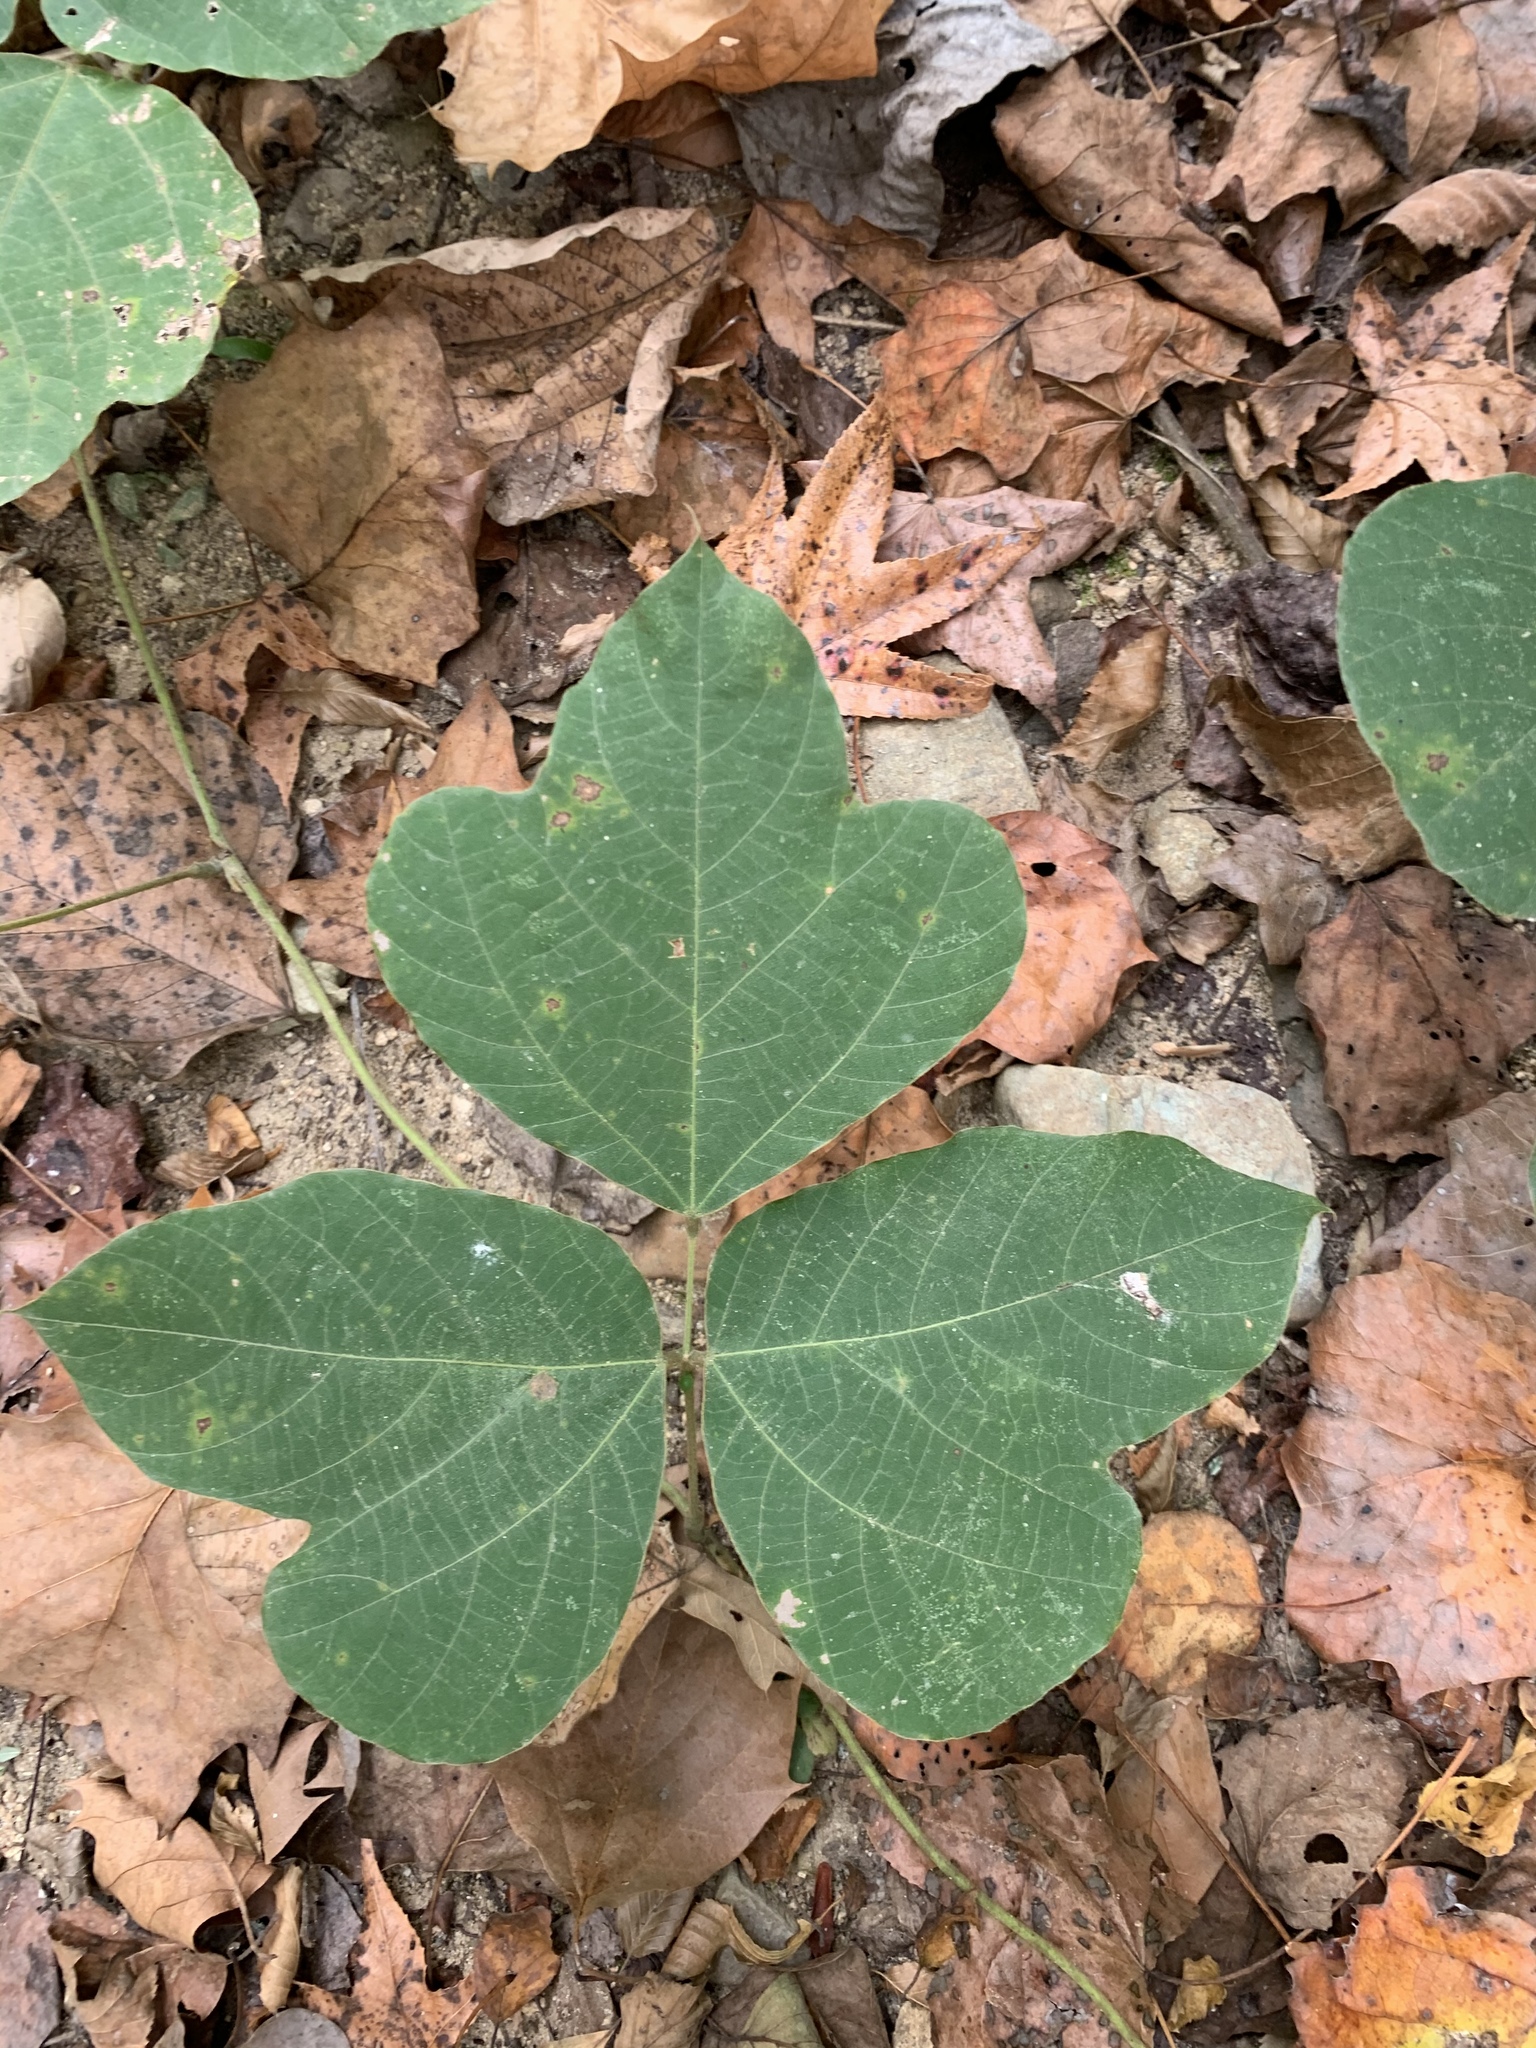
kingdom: Plantae
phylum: Tracheophyta
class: Magnoliopsida
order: Fabales
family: Fabaceae
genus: Pueraria
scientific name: Pueraria montana
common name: Kudzu
